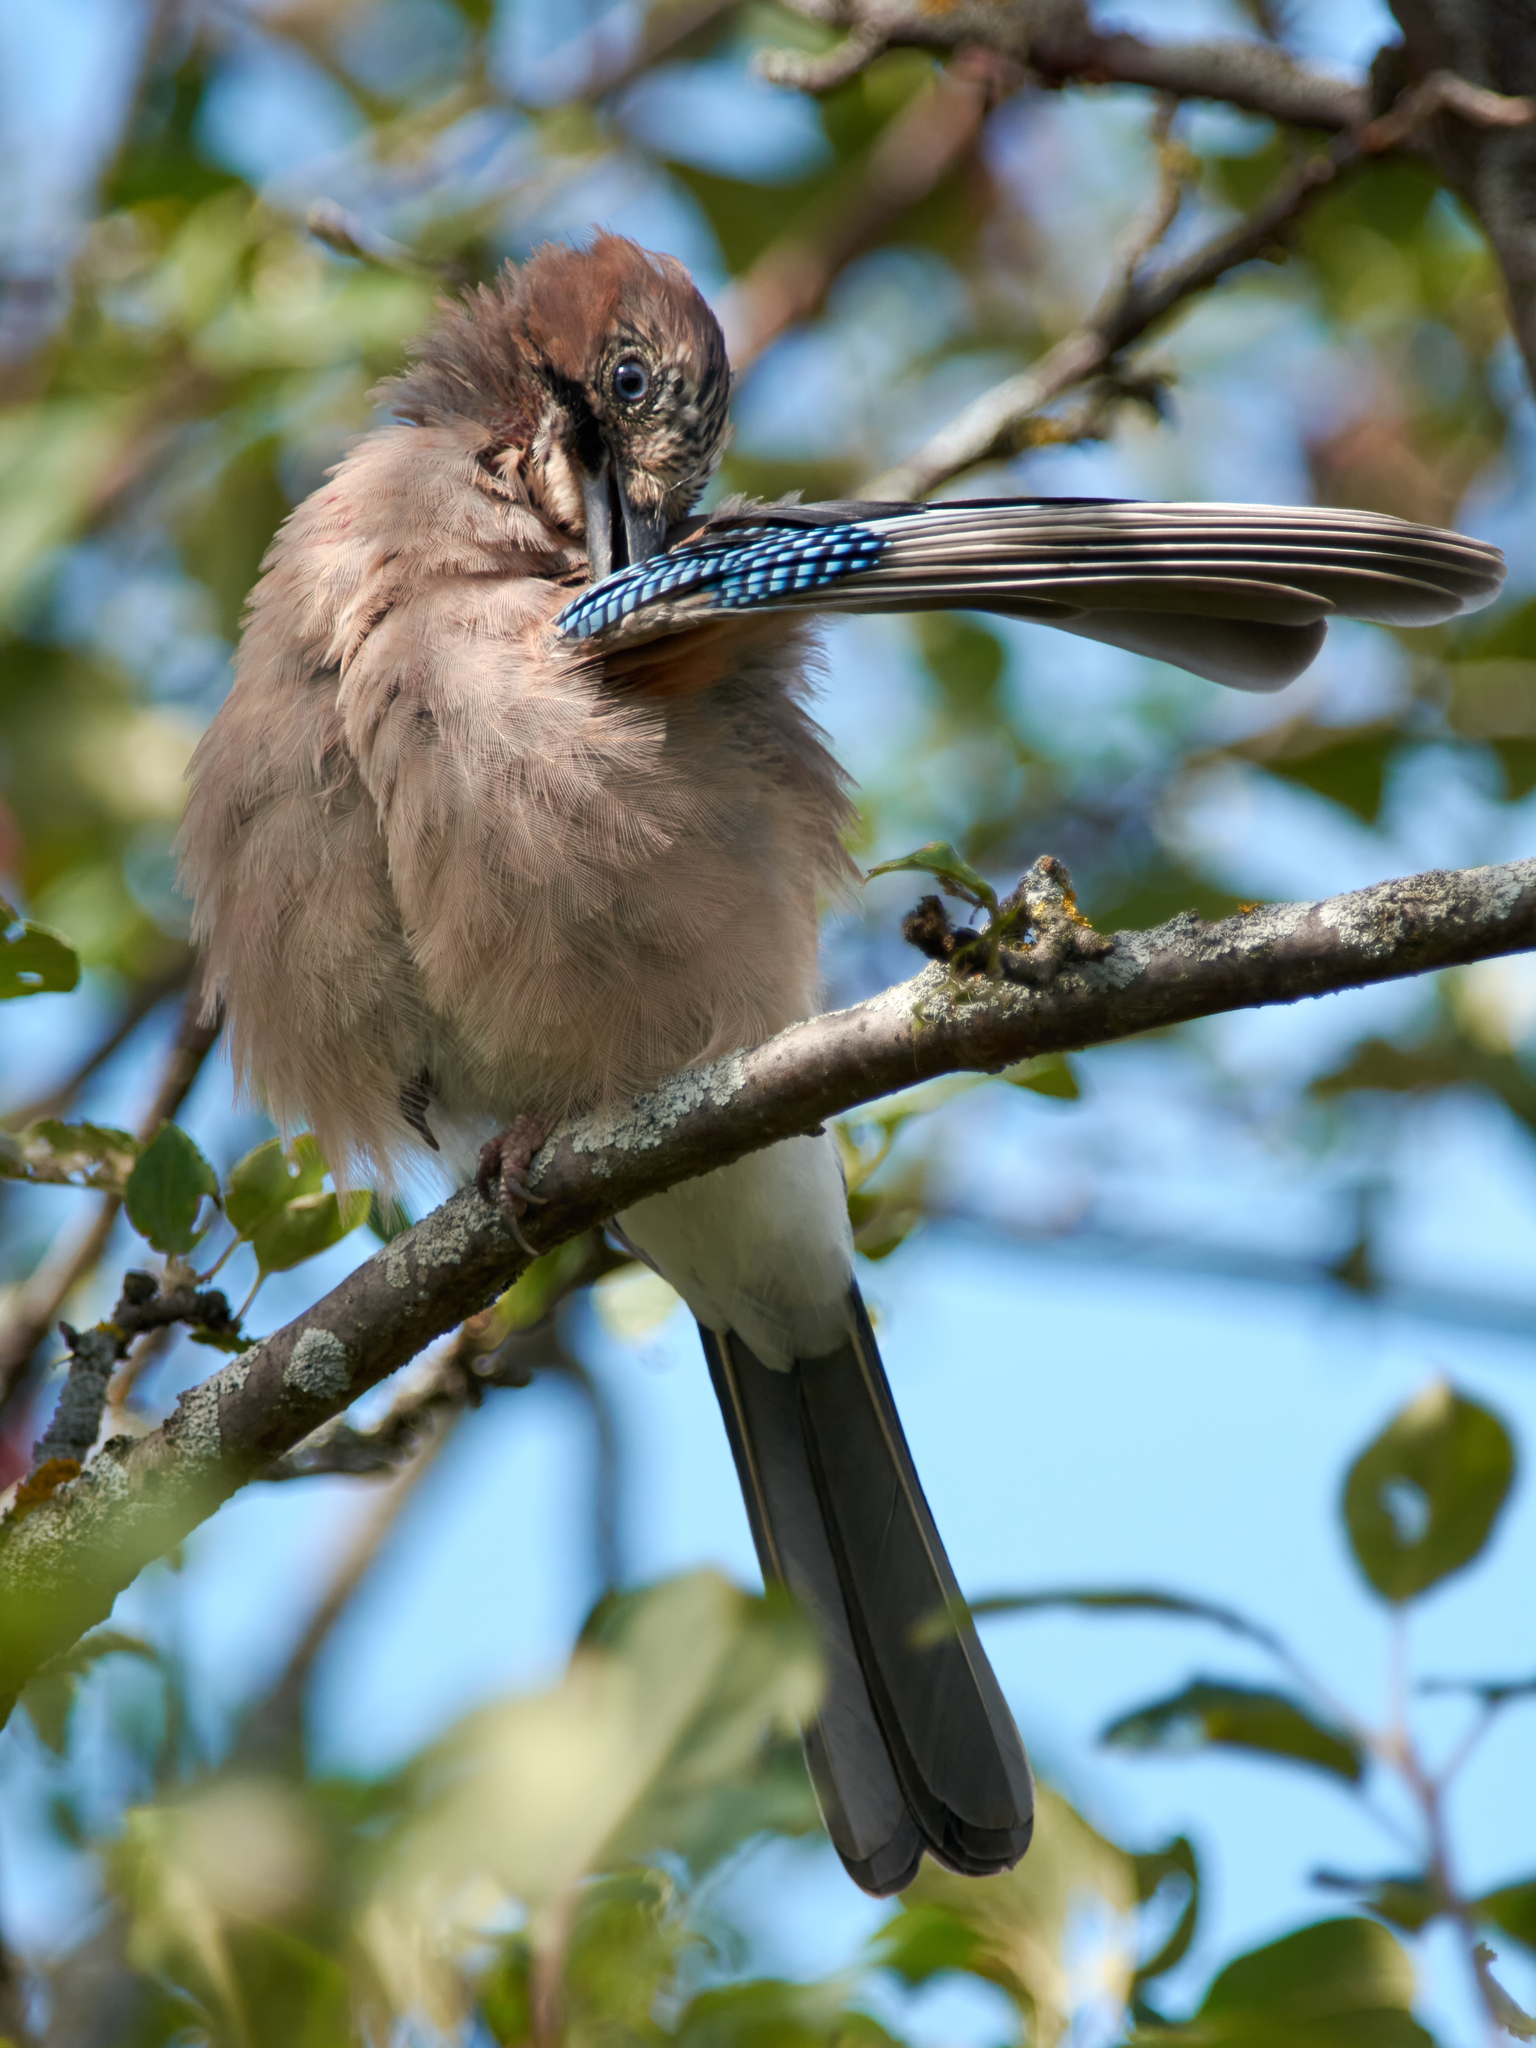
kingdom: Animalia
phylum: Chordata
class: Aves
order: Passeriformes
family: Corvidae
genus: Garrulus
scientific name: Garrulus glandarius
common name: Eurasian jay
